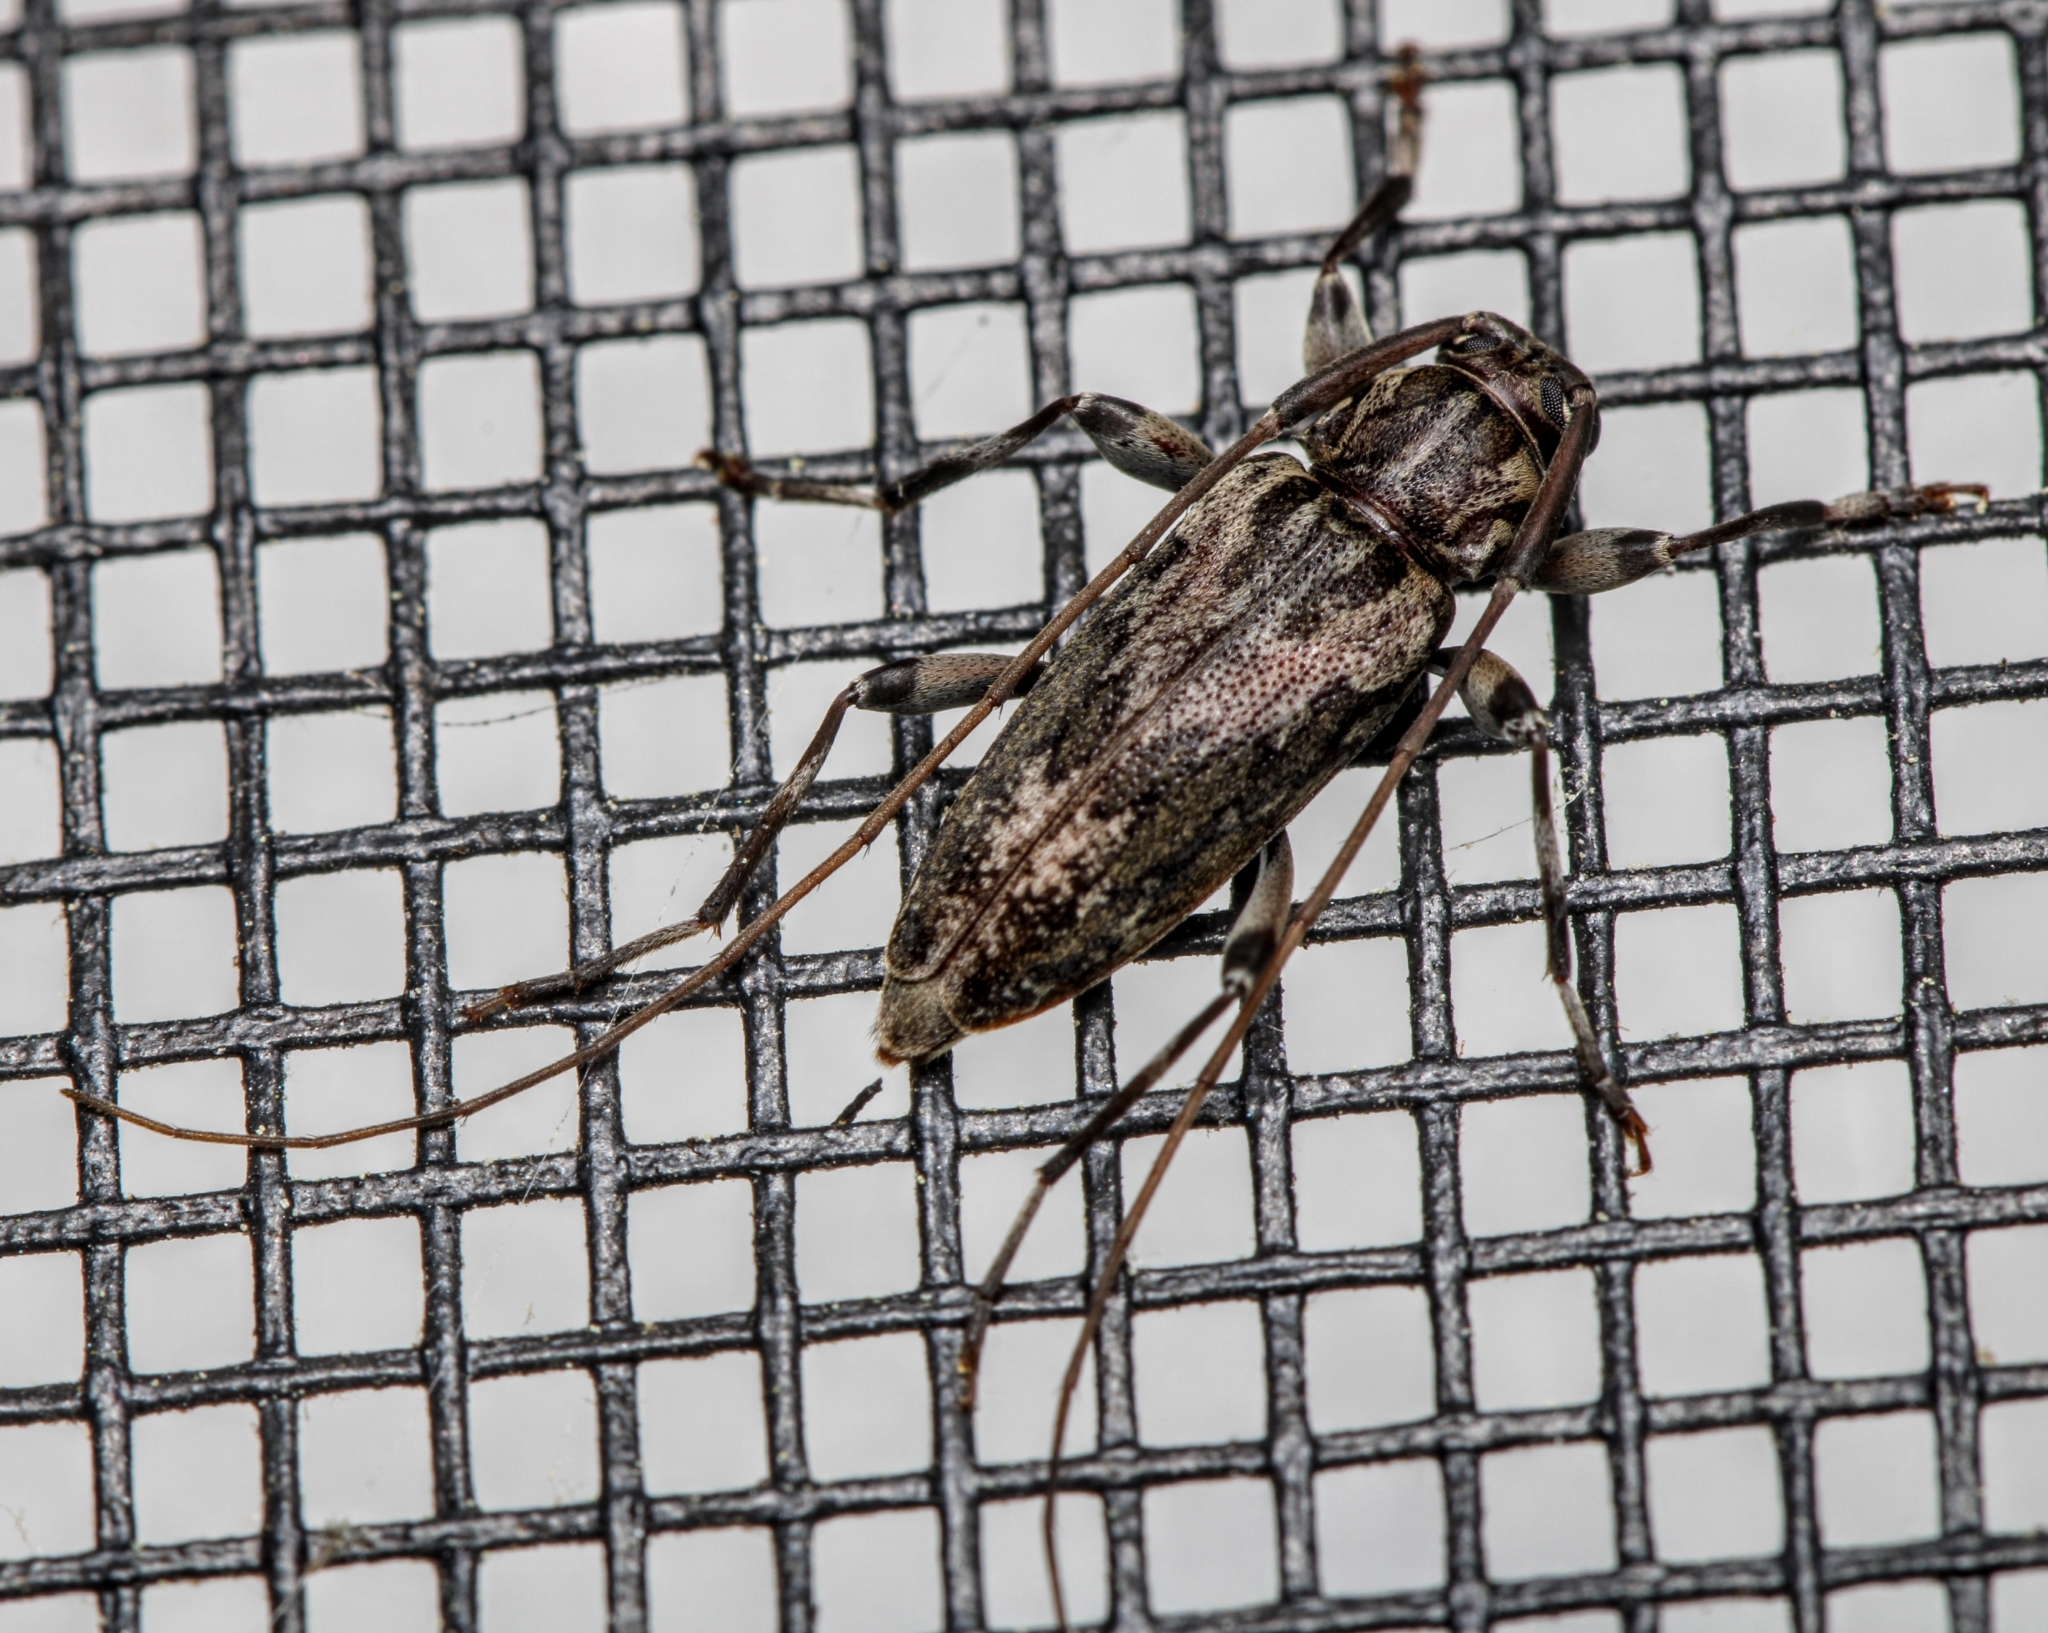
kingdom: Animalia
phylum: Arthropoda
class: Insecta
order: Coleoptera
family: Cerambycidae
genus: Lepturges
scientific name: Lepturges confluens
